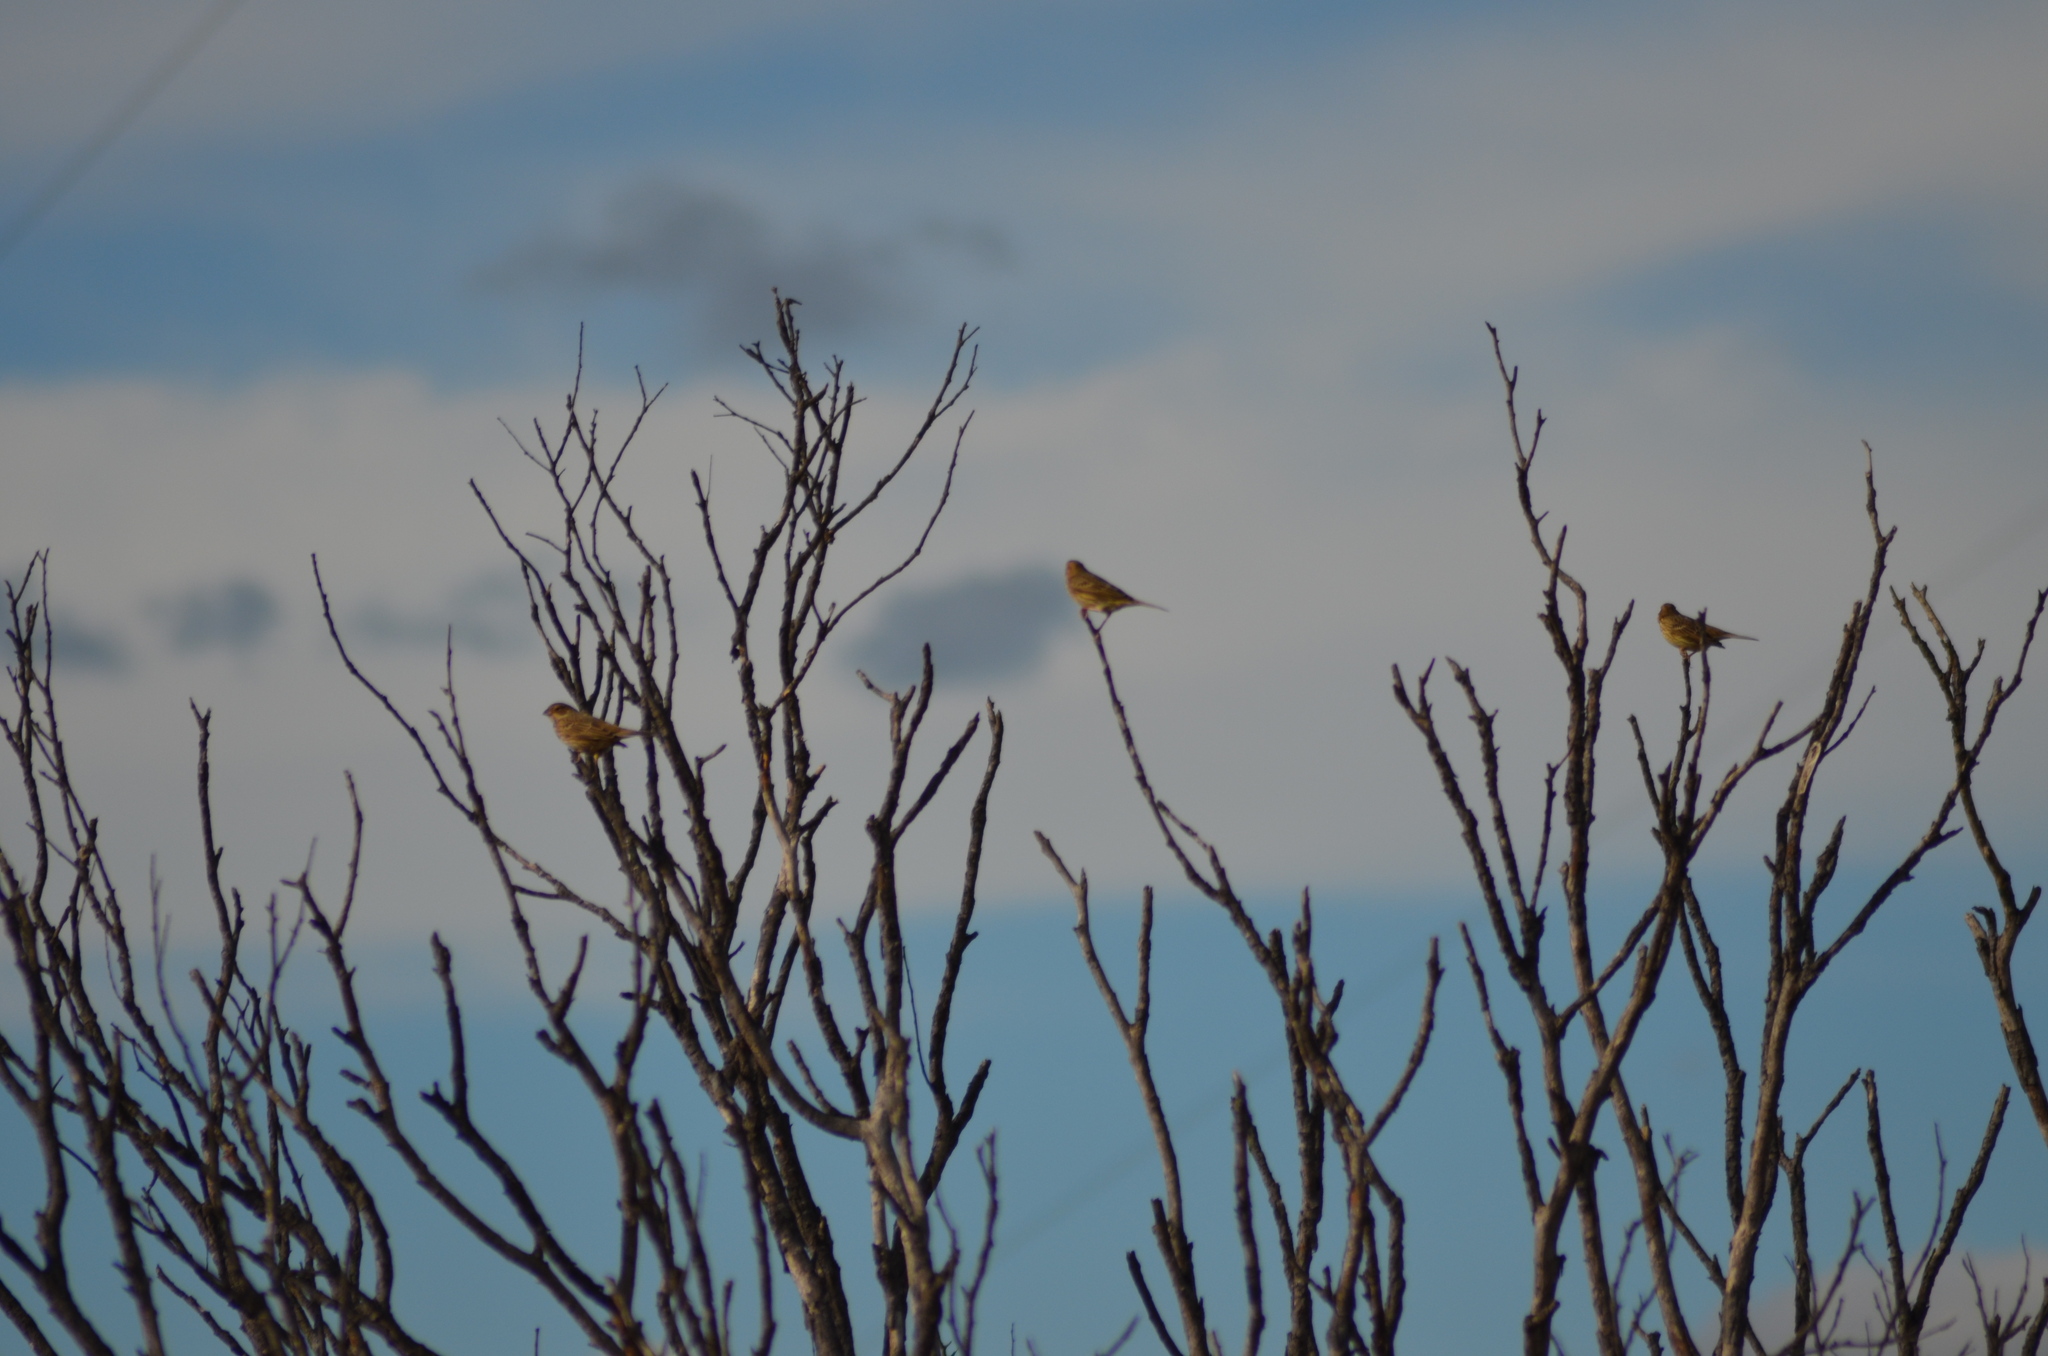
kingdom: Animalia
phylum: Chordata
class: Aves
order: Passeriformes
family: Emberizidae
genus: Emberiza
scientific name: Emberiza calandra
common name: Corn bunting
